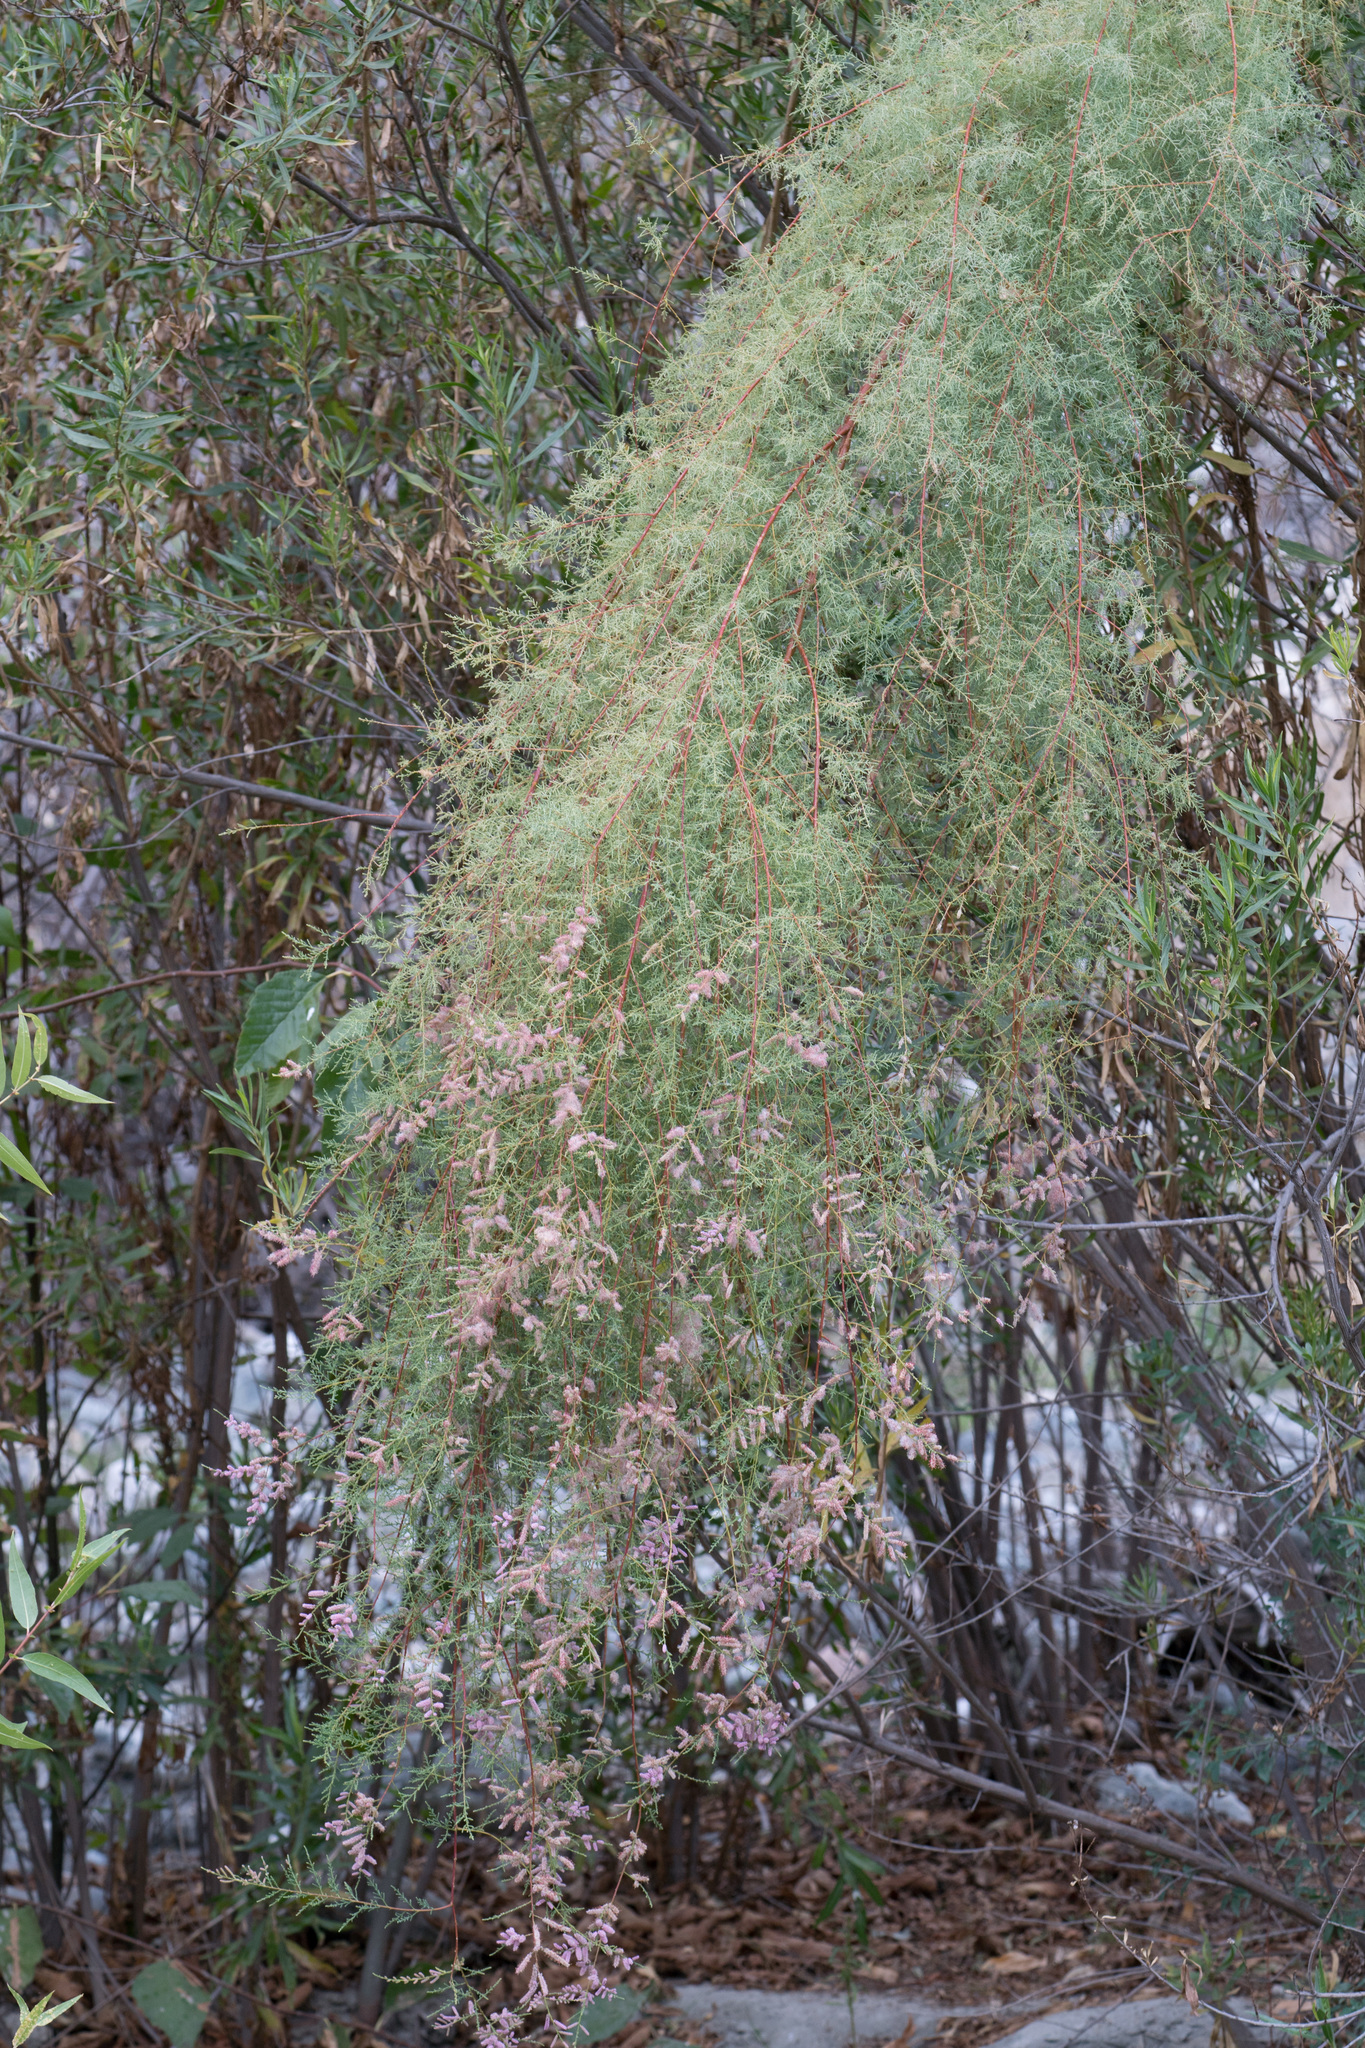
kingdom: Plantae
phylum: Tracheophyta
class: Magnoliopsida
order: Caryophyllales
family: Tamaricaceae
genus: Tamarix
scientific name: Tamarix
